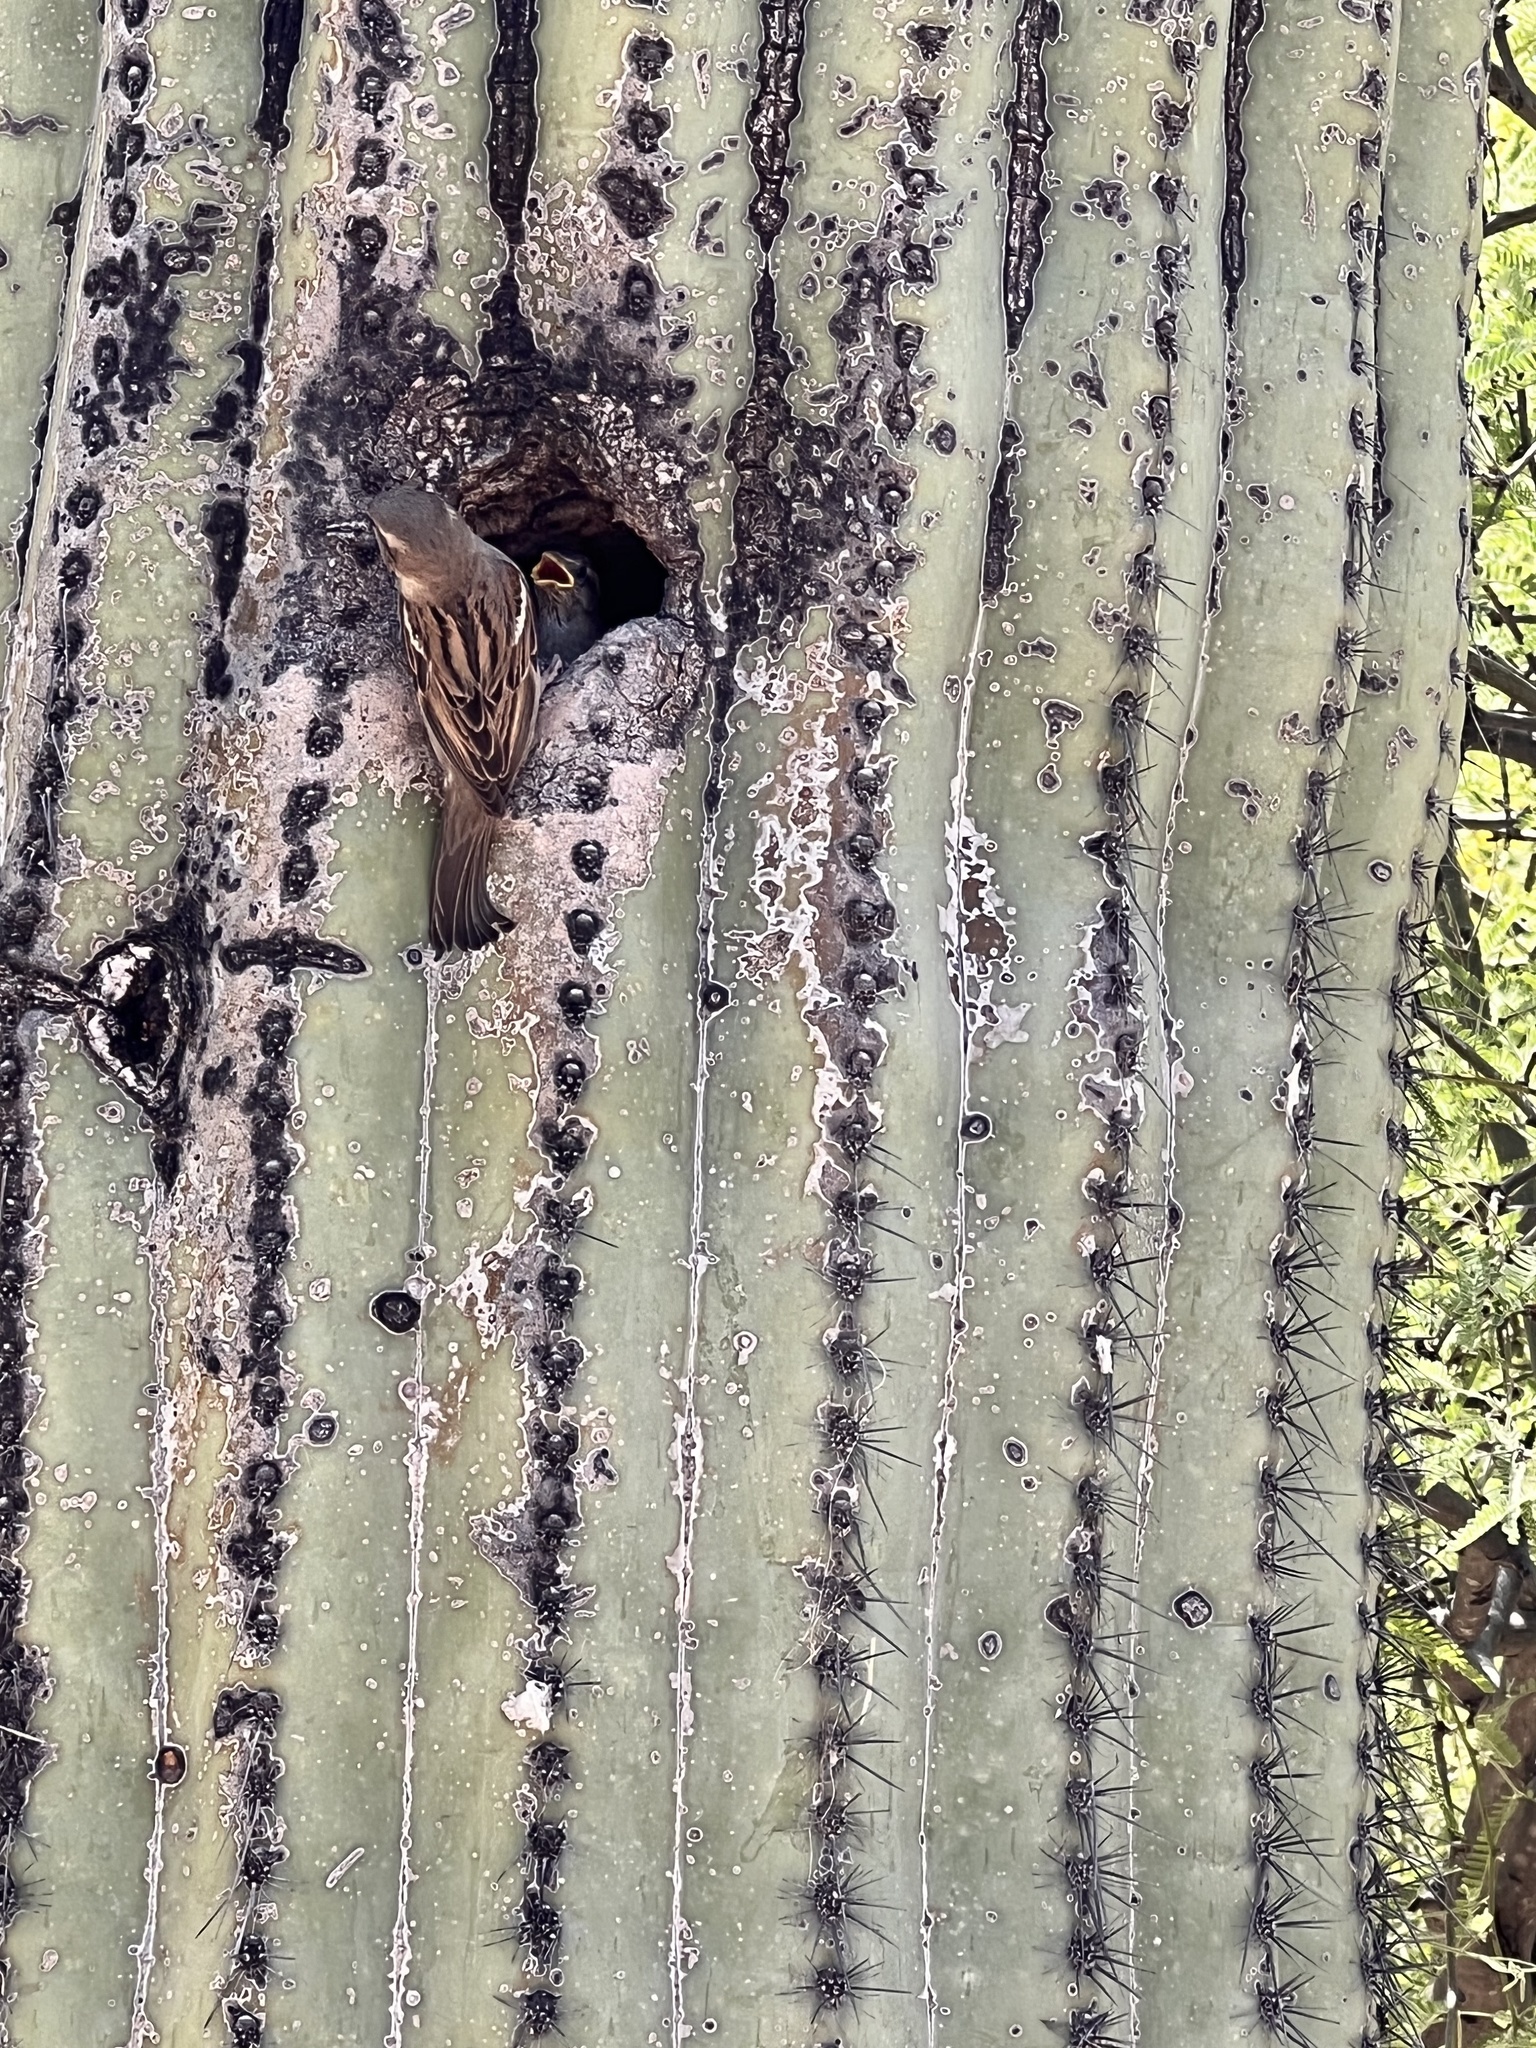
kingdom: Animalia
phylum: Chordata
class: Aves
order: Passeriformes
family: Passeridae
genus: Passer
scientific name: Passer domesticus
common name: House sparrow
